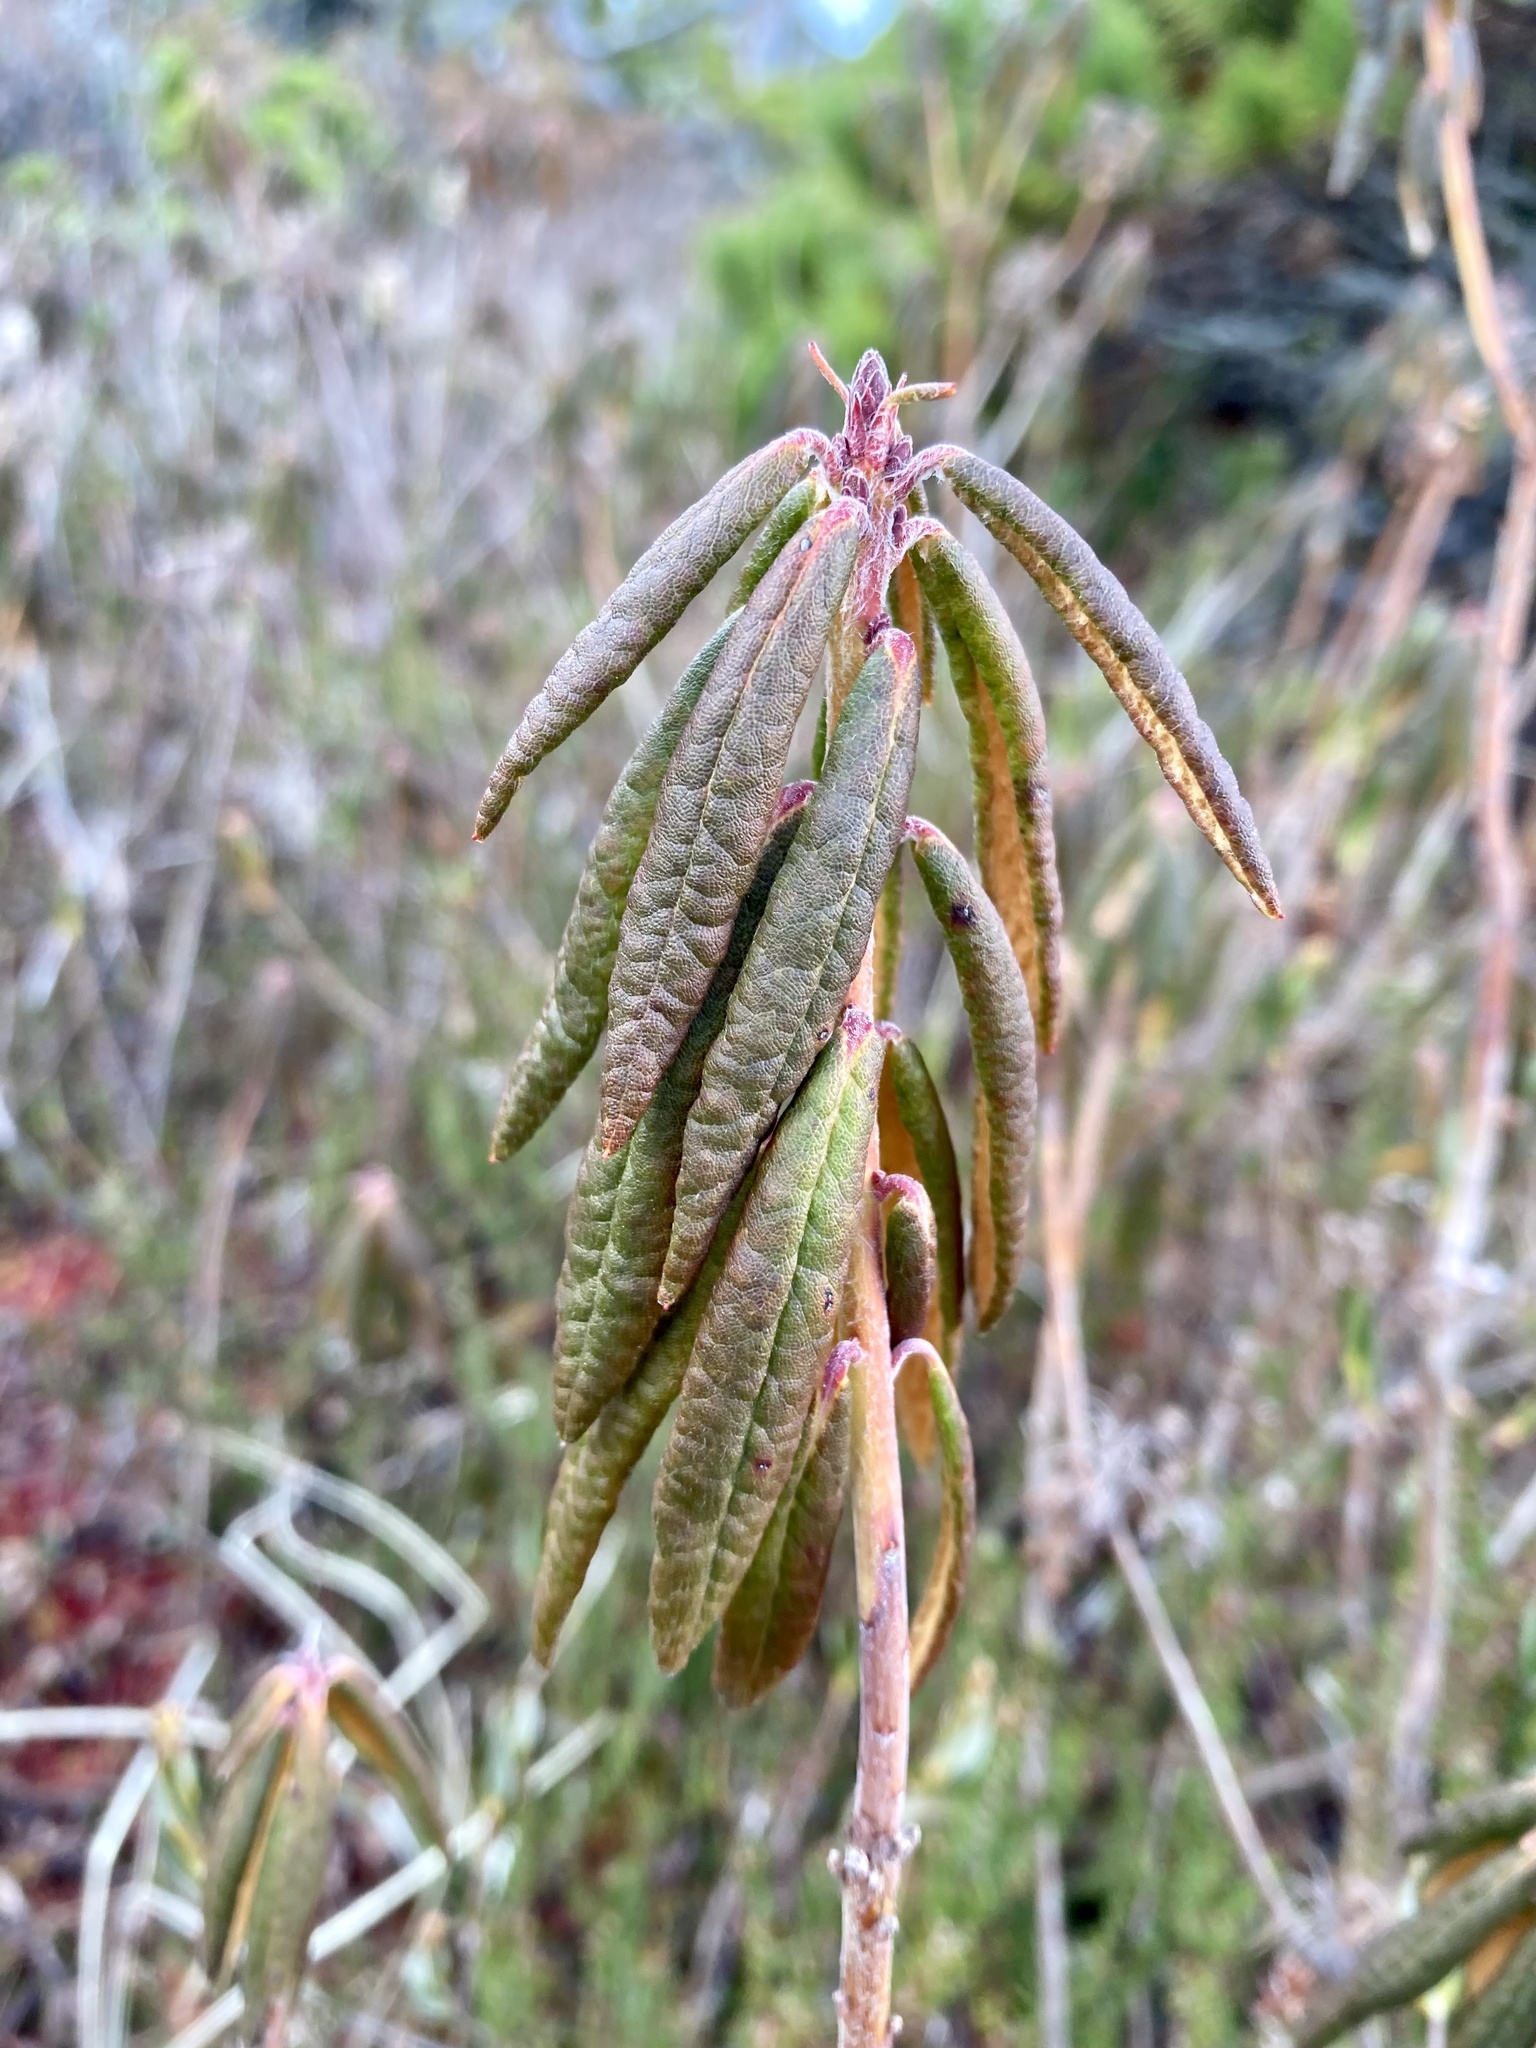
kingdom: Plantae
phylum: Tracheophyta
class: Magnoliopsida
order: Ericales
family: Ericaceae
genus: Rhododendron
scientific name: Rhododendron groenlandicum
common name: Bog labrador tea
